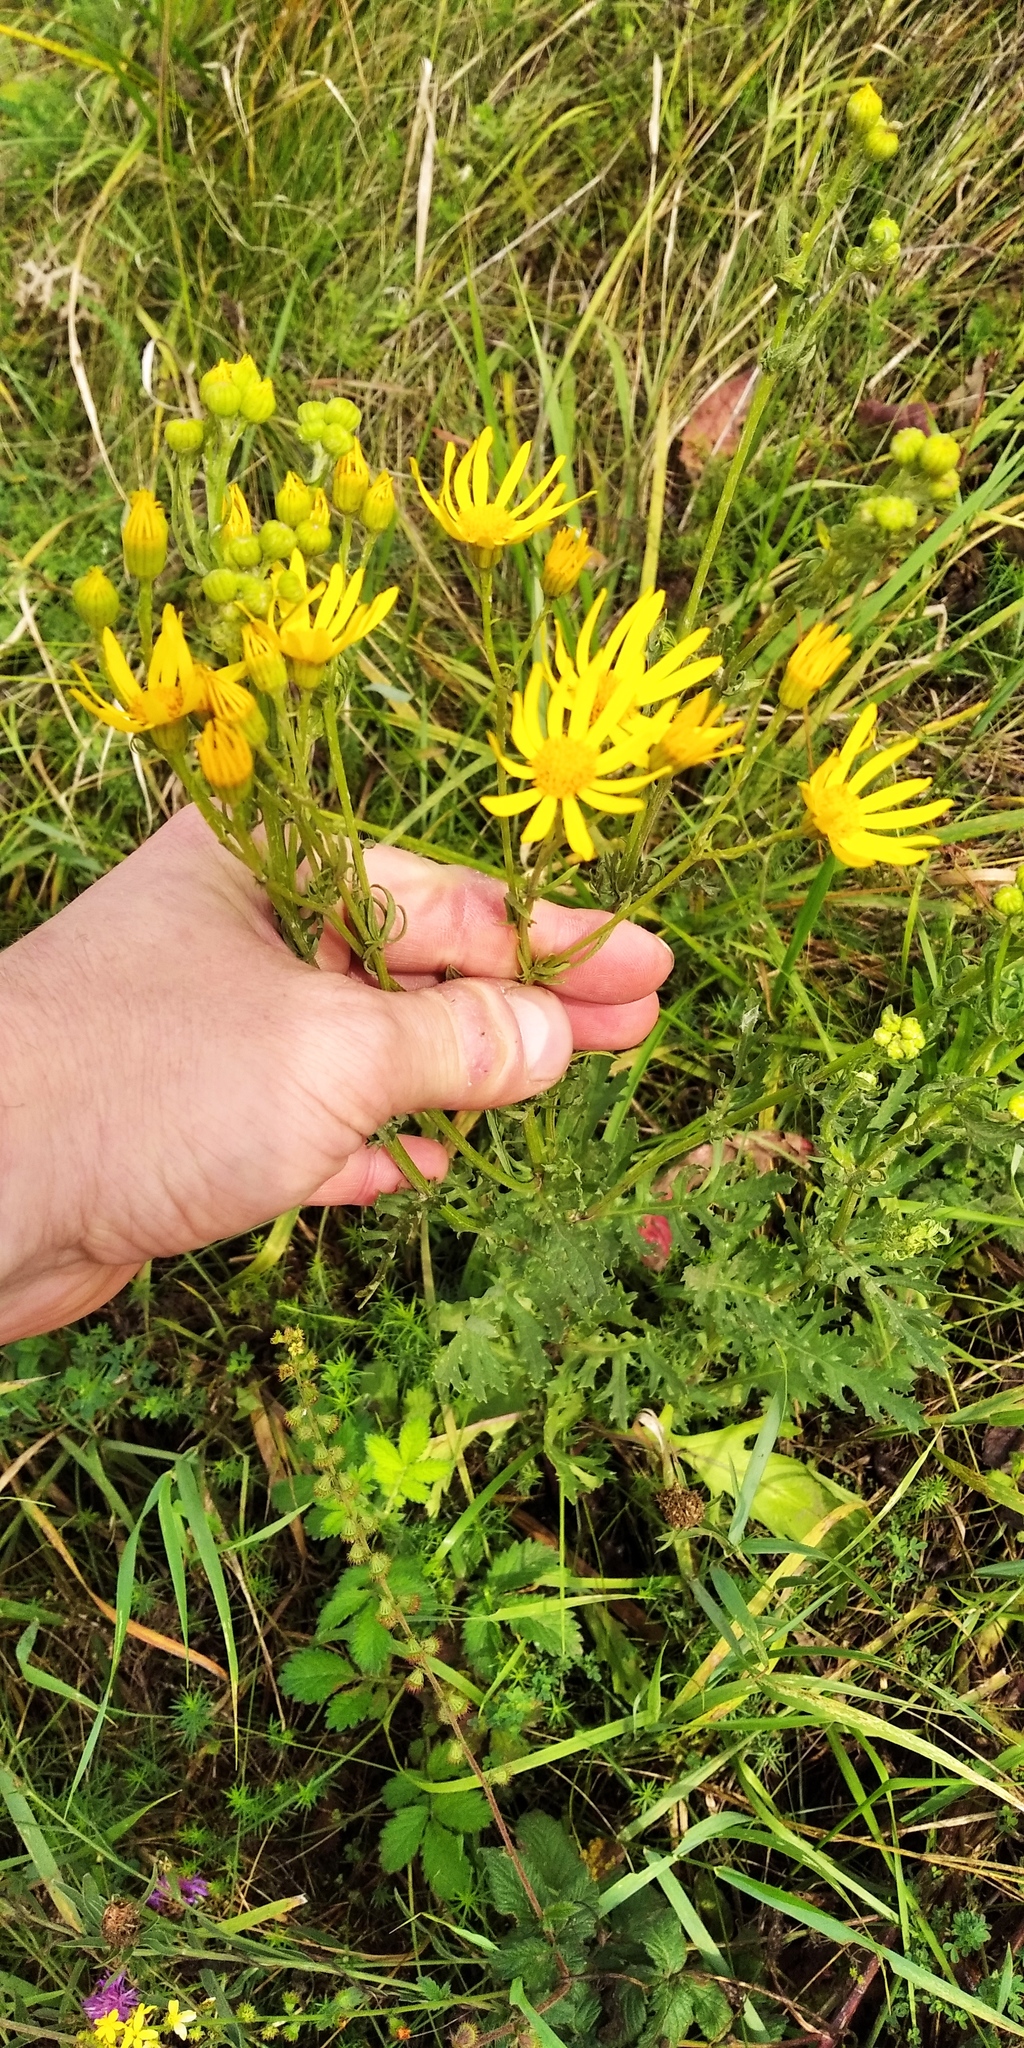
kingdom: Plantae
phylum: Tracheophyta
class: Magnoliopsida
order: Asterales
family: Asteraceae
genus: Jacobaea
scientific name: Jacobaea vulgaris
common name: Stinking willie
